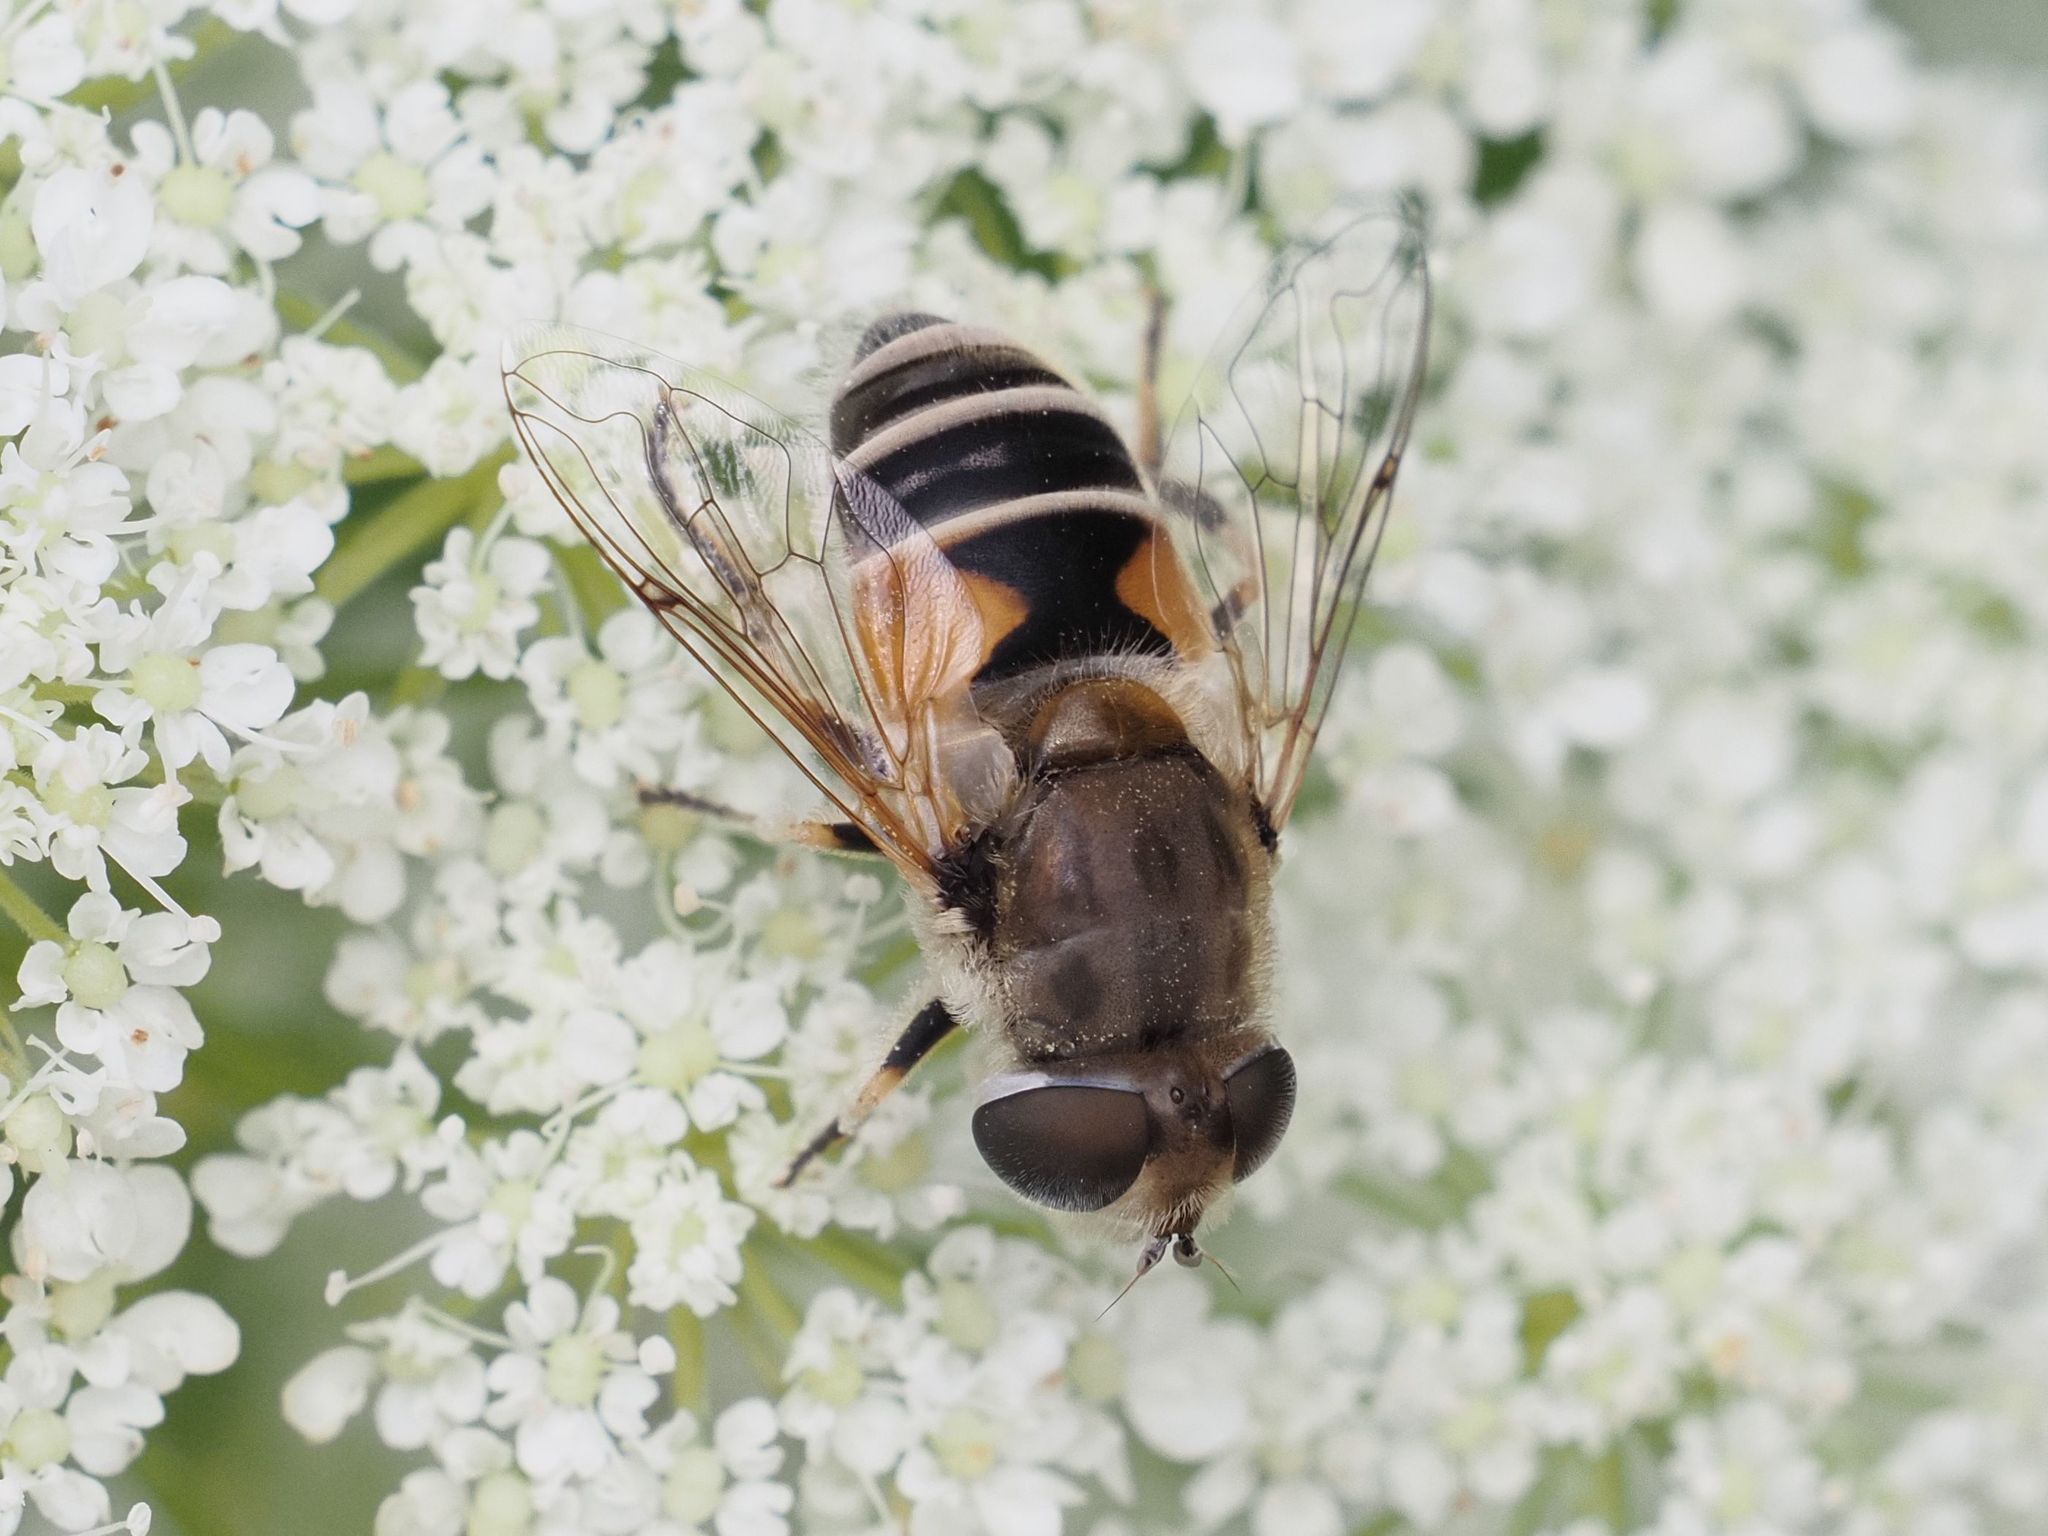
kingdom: Animalia
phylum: Arthropoda
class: Insecta
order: Diptera
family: Syrphidae
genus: Eristalis
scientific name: Eristalis arbustorum
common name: Hover fly
